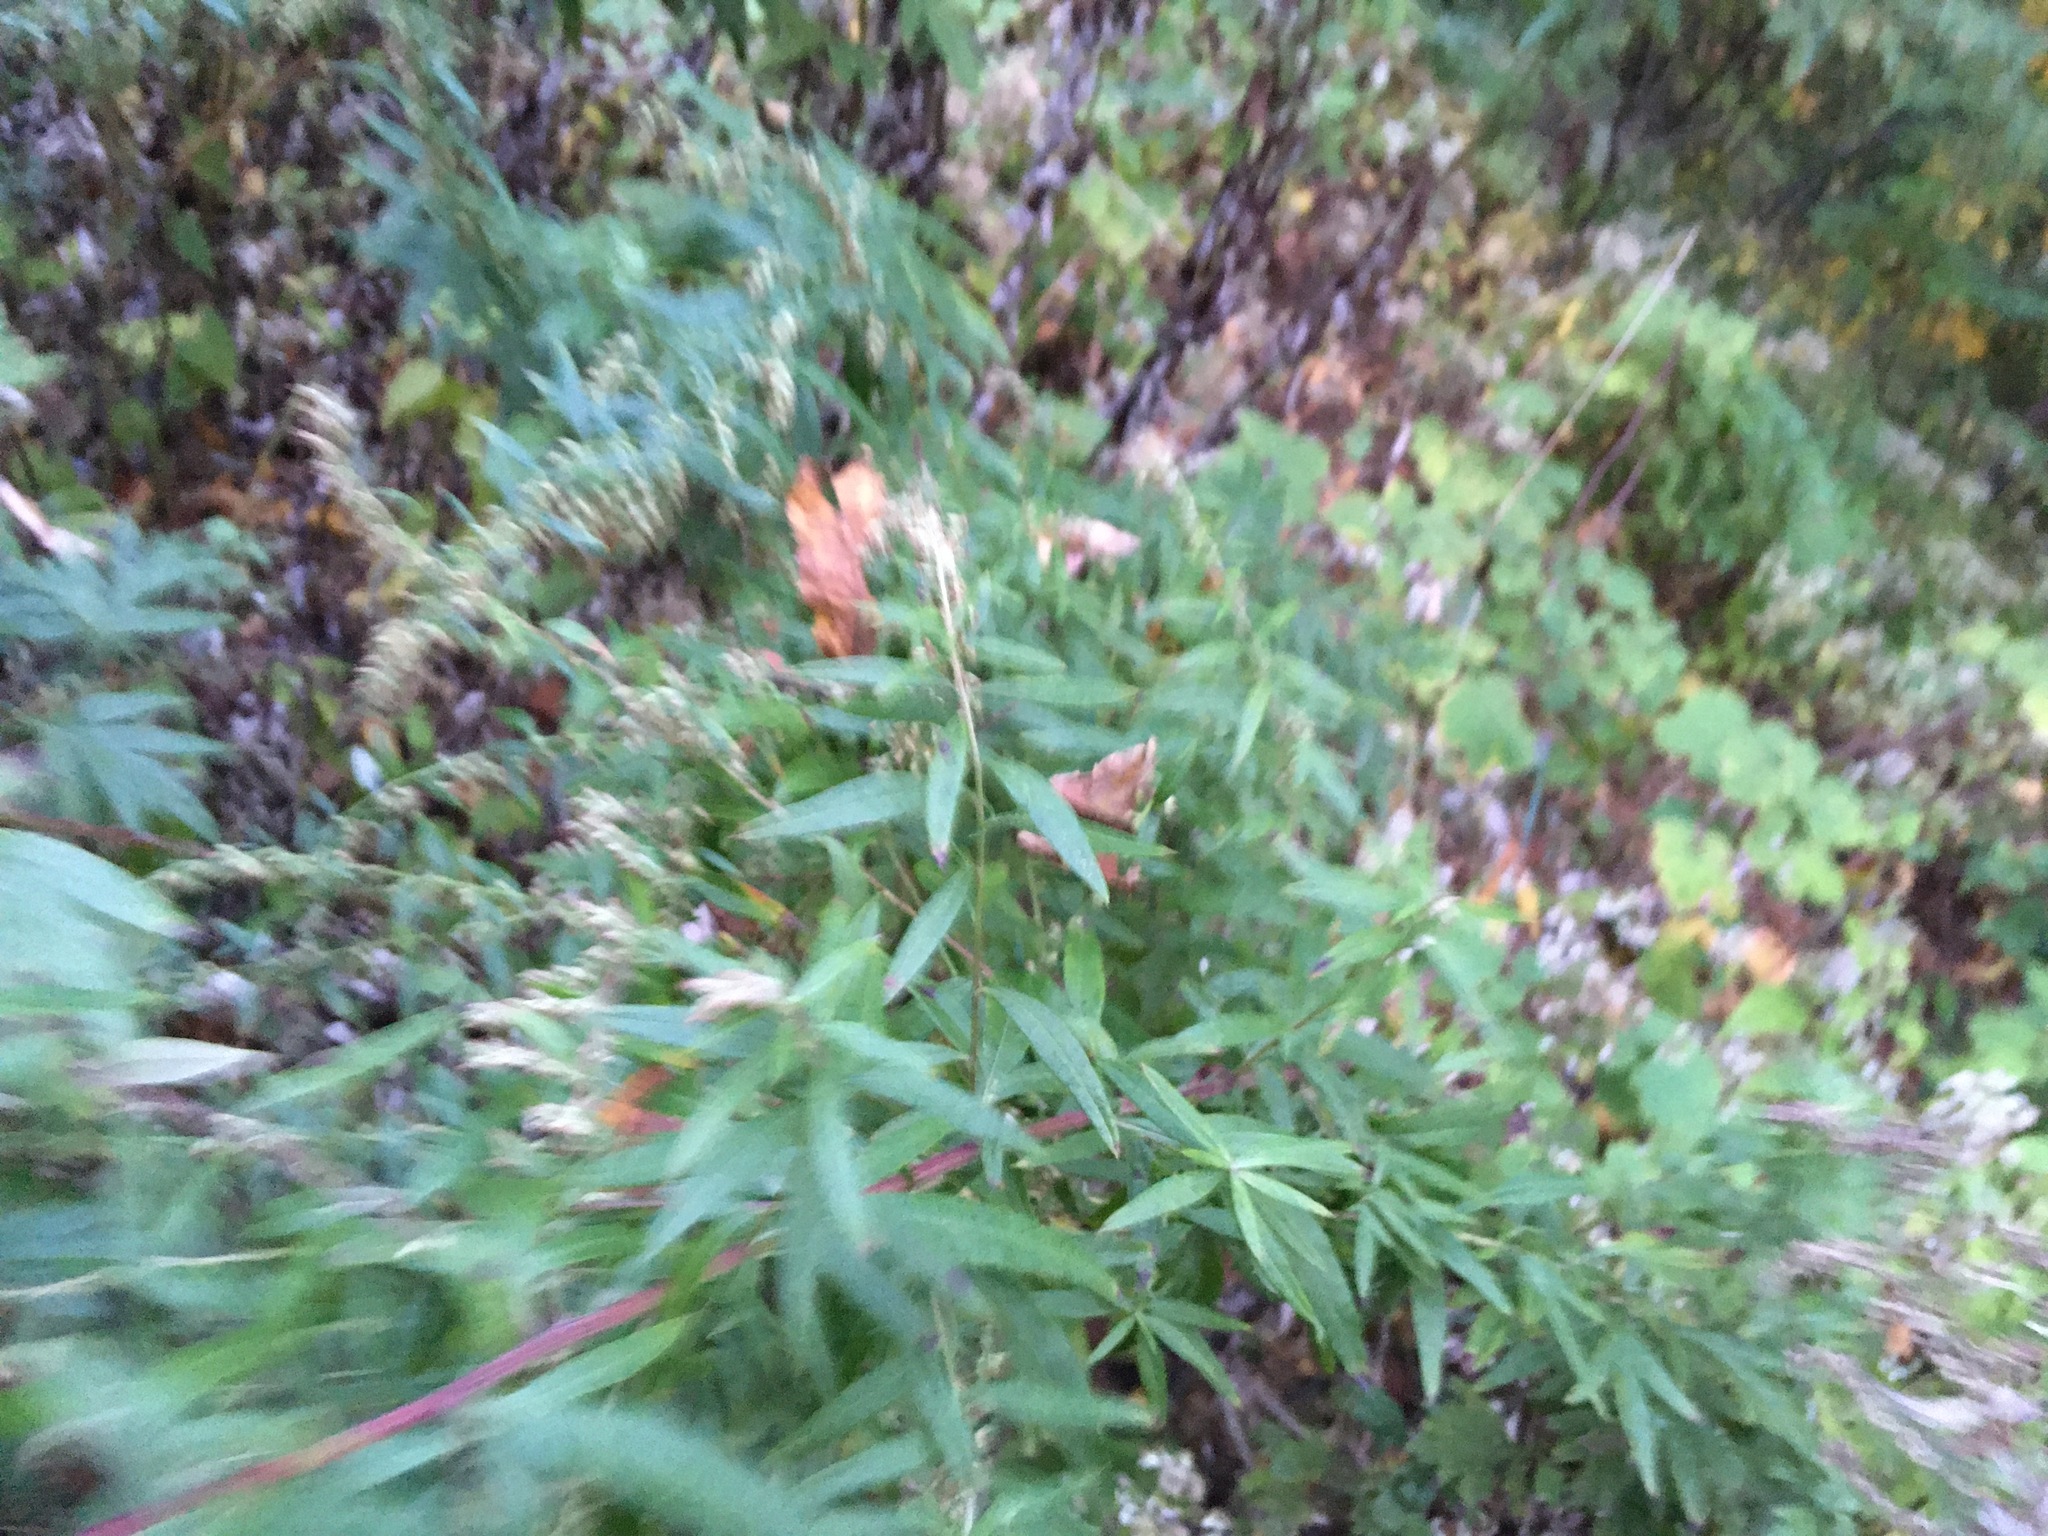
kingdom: Plantae
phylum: Tracheophyta
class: Magnoliopsida
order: Asterales
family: Asteraceae
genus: Artemisia
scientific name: Artemisia vulgaris
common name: Mugwort
